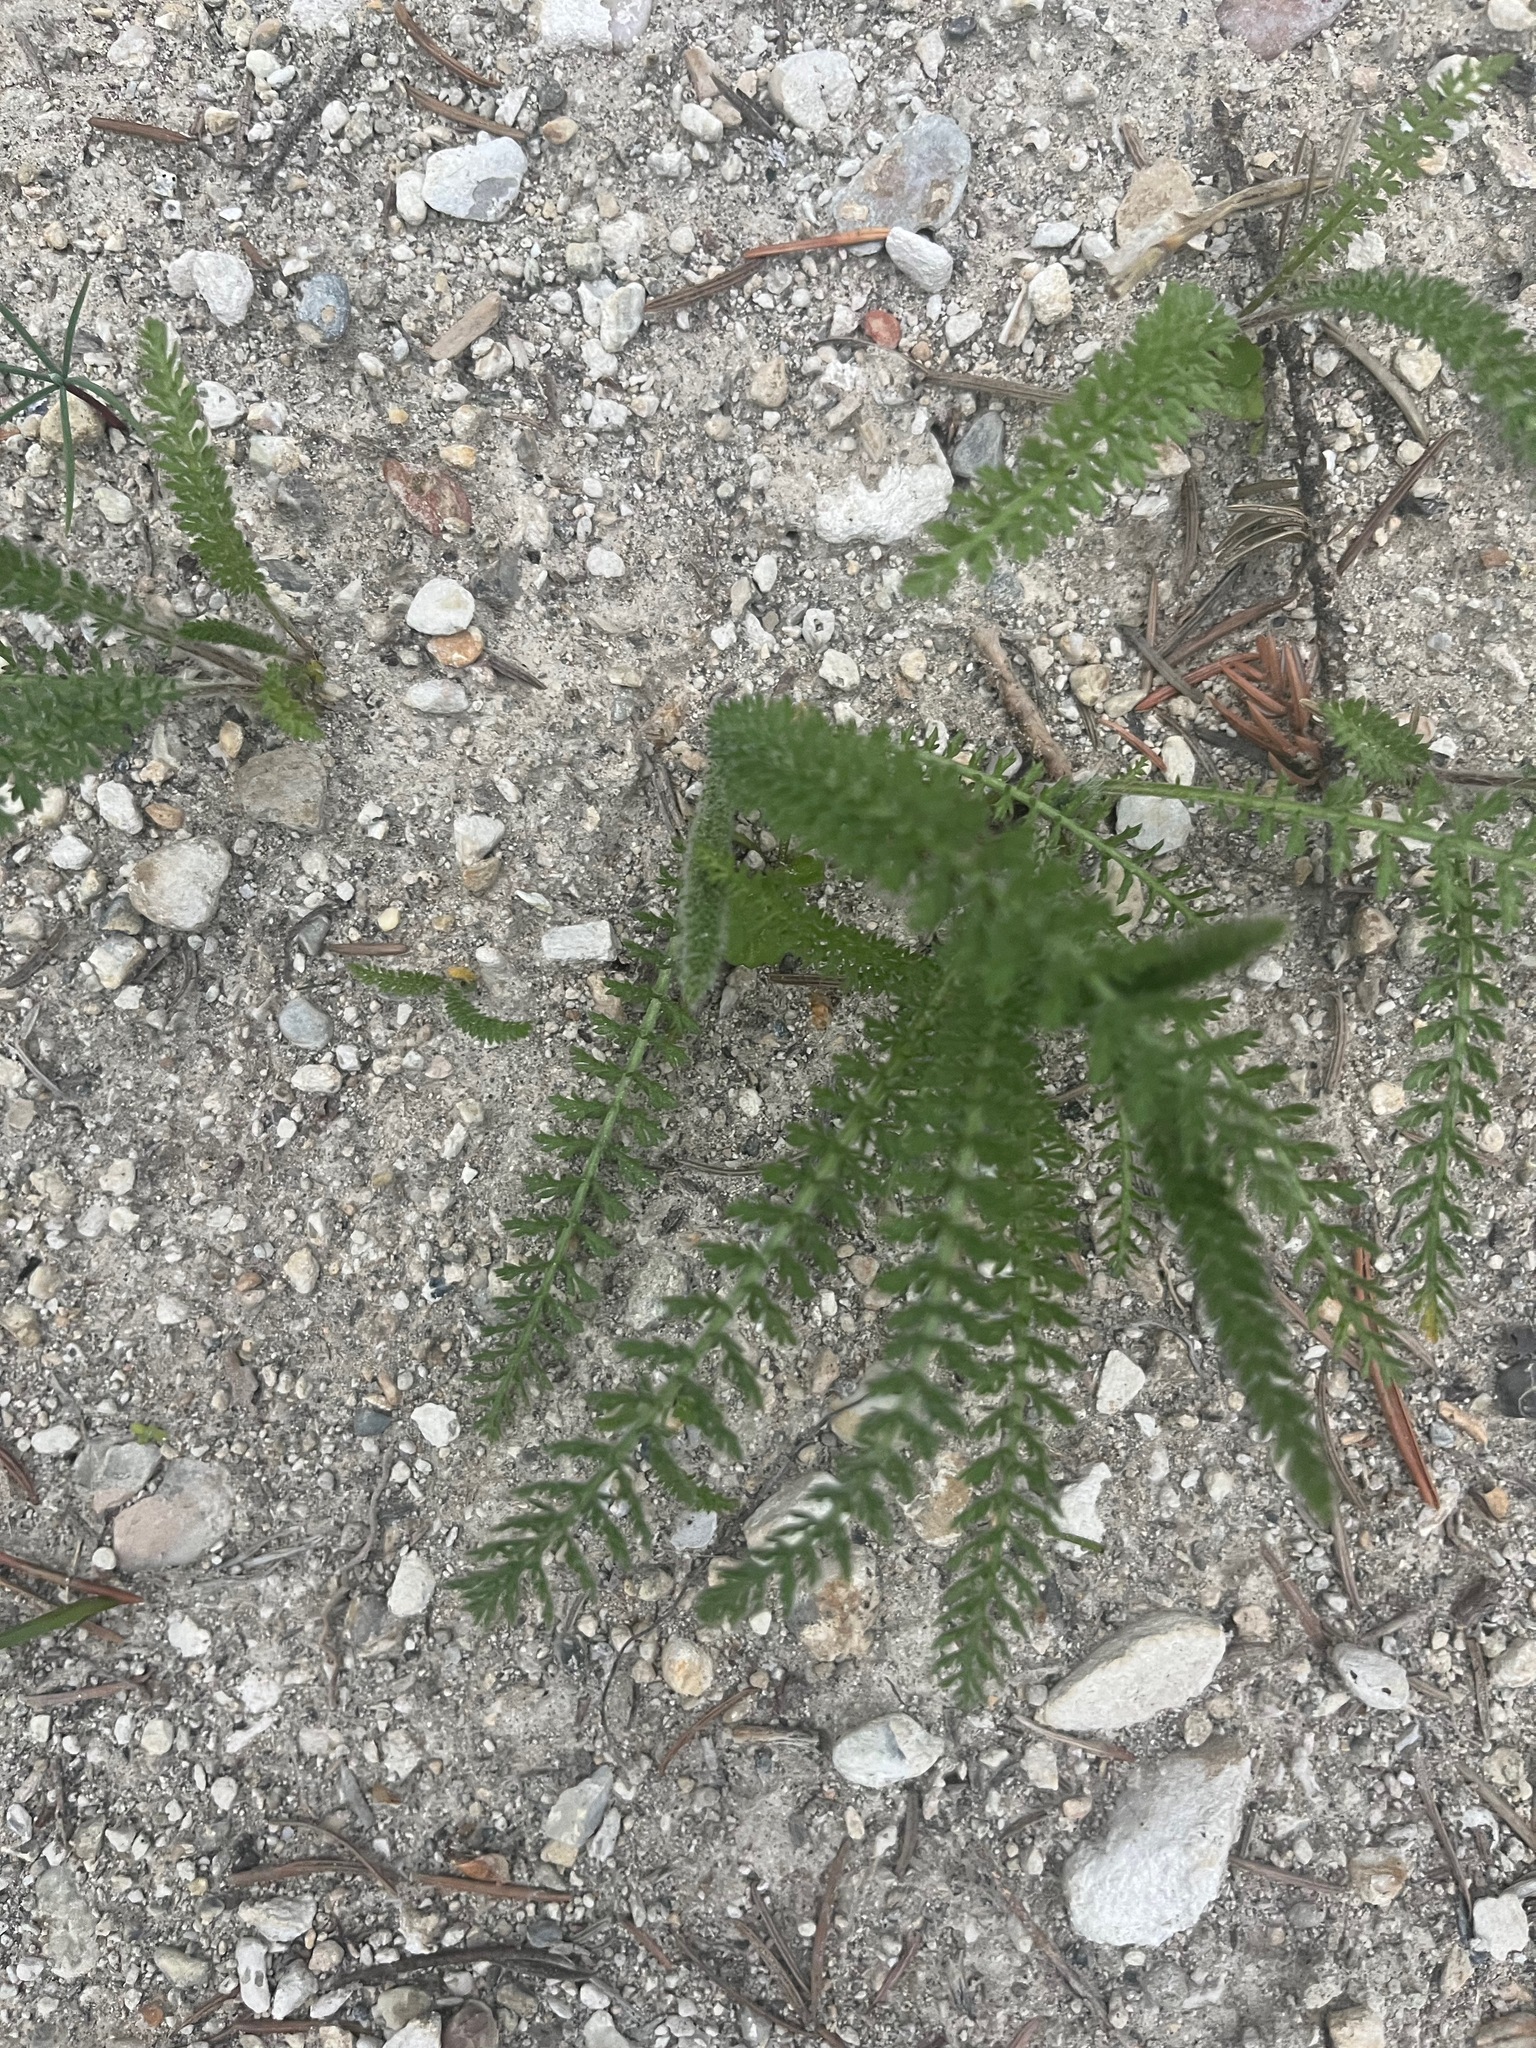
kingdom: Plantae
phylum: Tracheophyta
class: Magnoliopsida
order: Asterales
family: Asteraceae
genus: Achillea
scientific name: Achillea millefolium
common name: Yarrow
